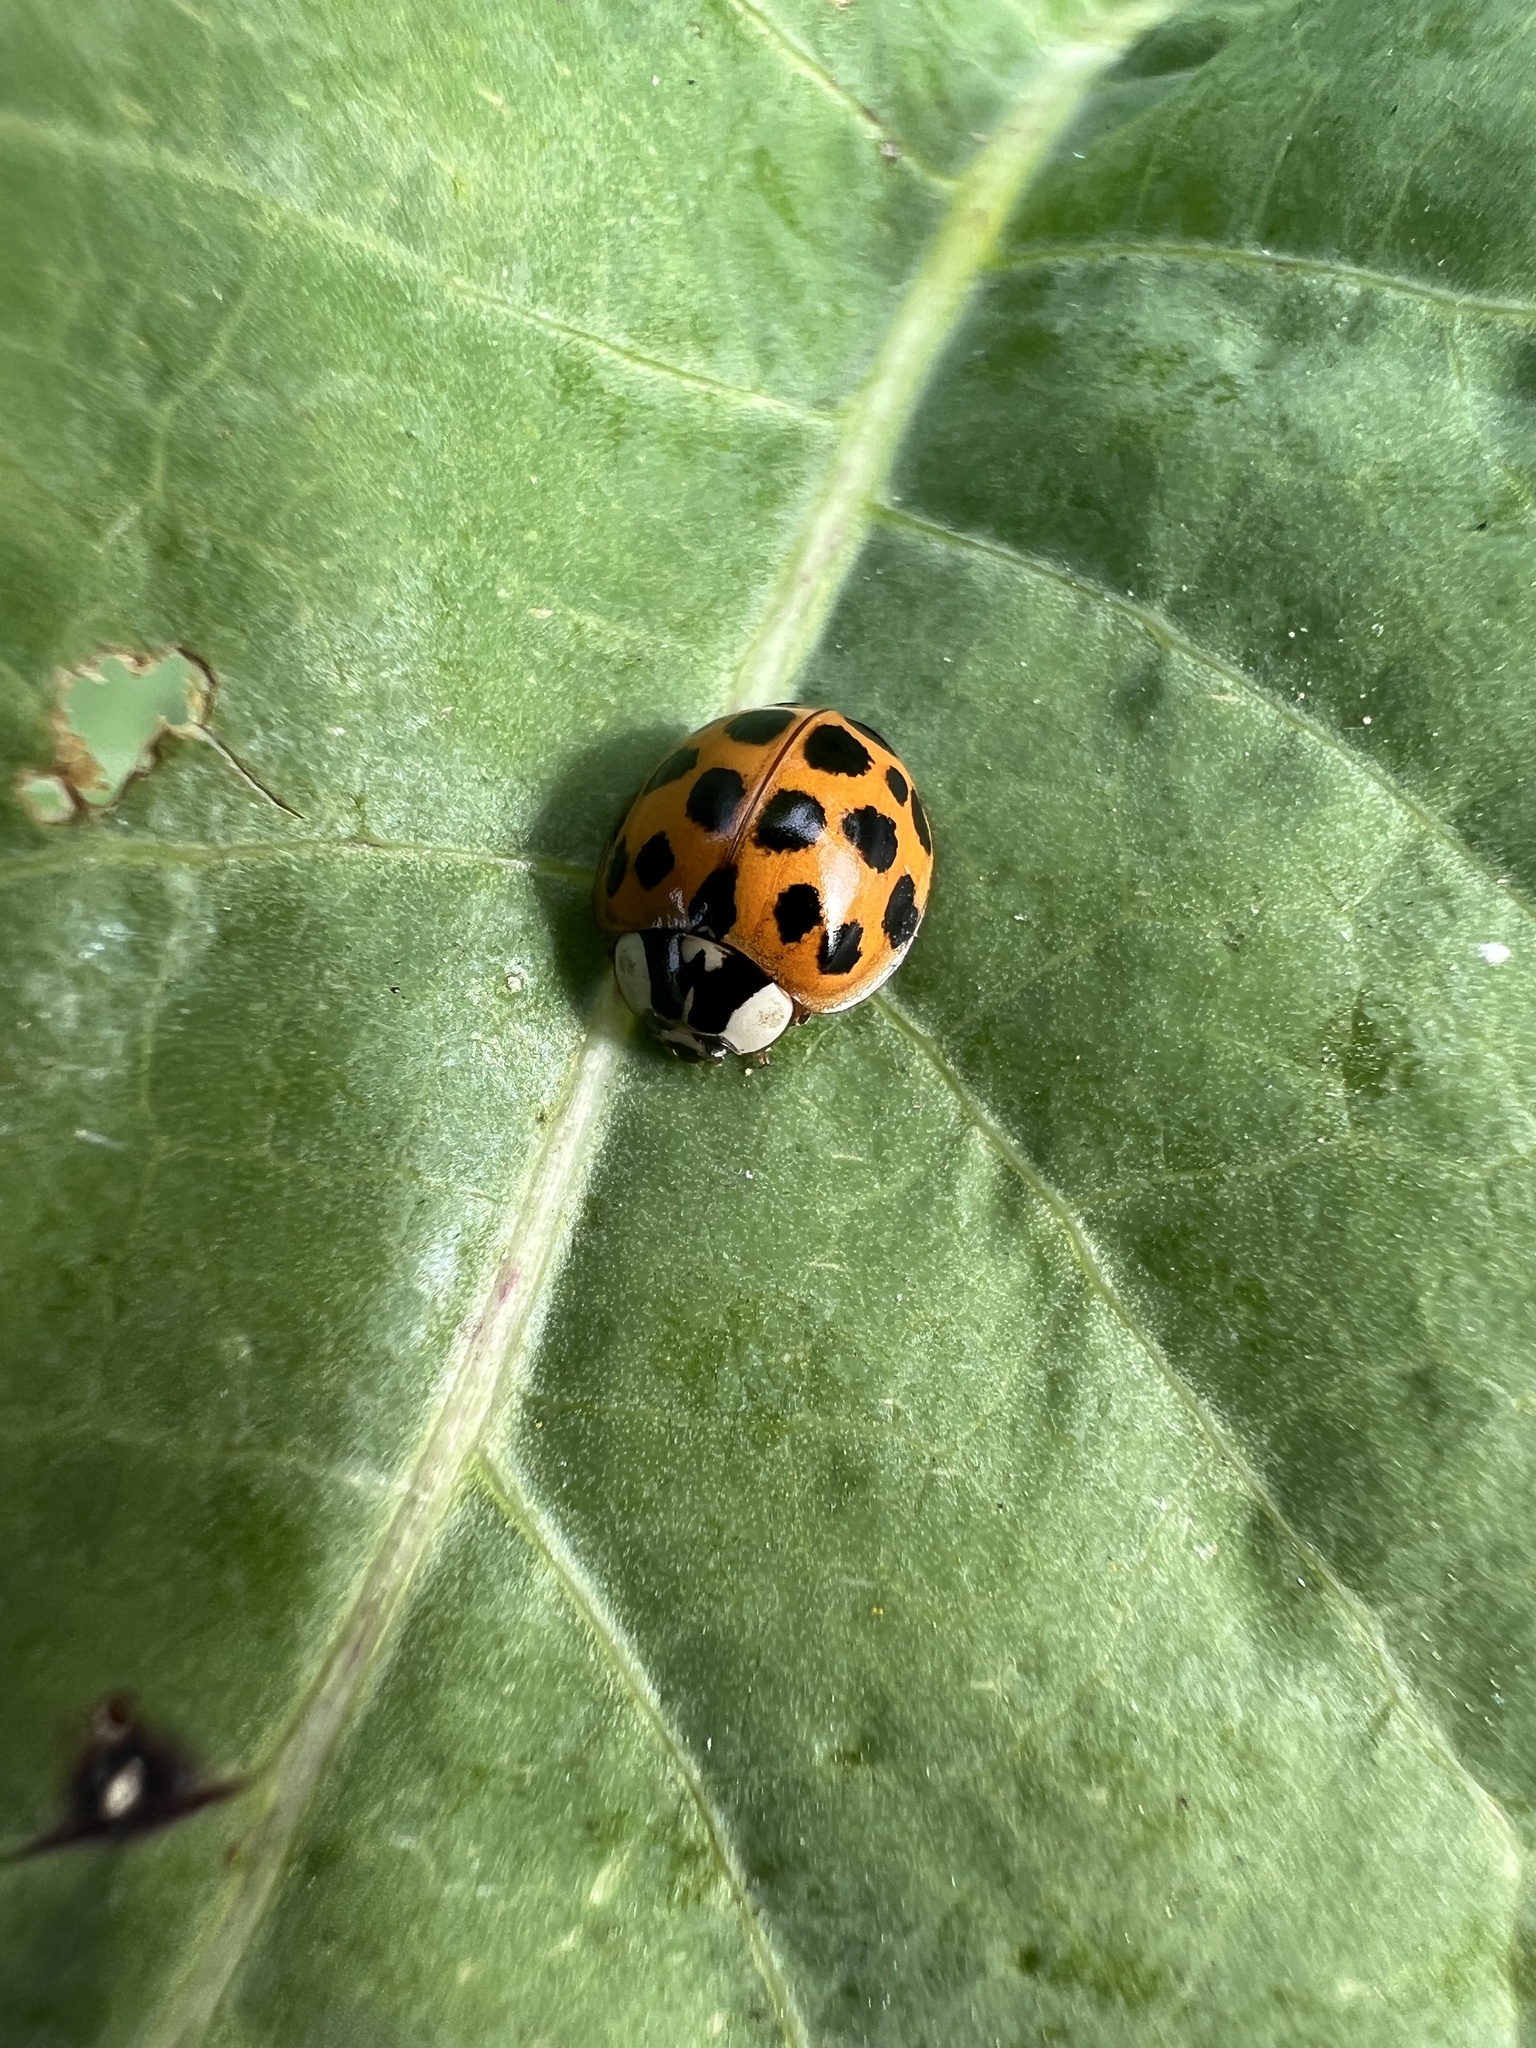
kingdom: Animalia
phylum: Arthropoda
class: Insecta
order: Coleoptera
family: Coccinellidae
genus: Harmonia
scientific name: Harmonia axyridis
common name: Harlequin ladybird
